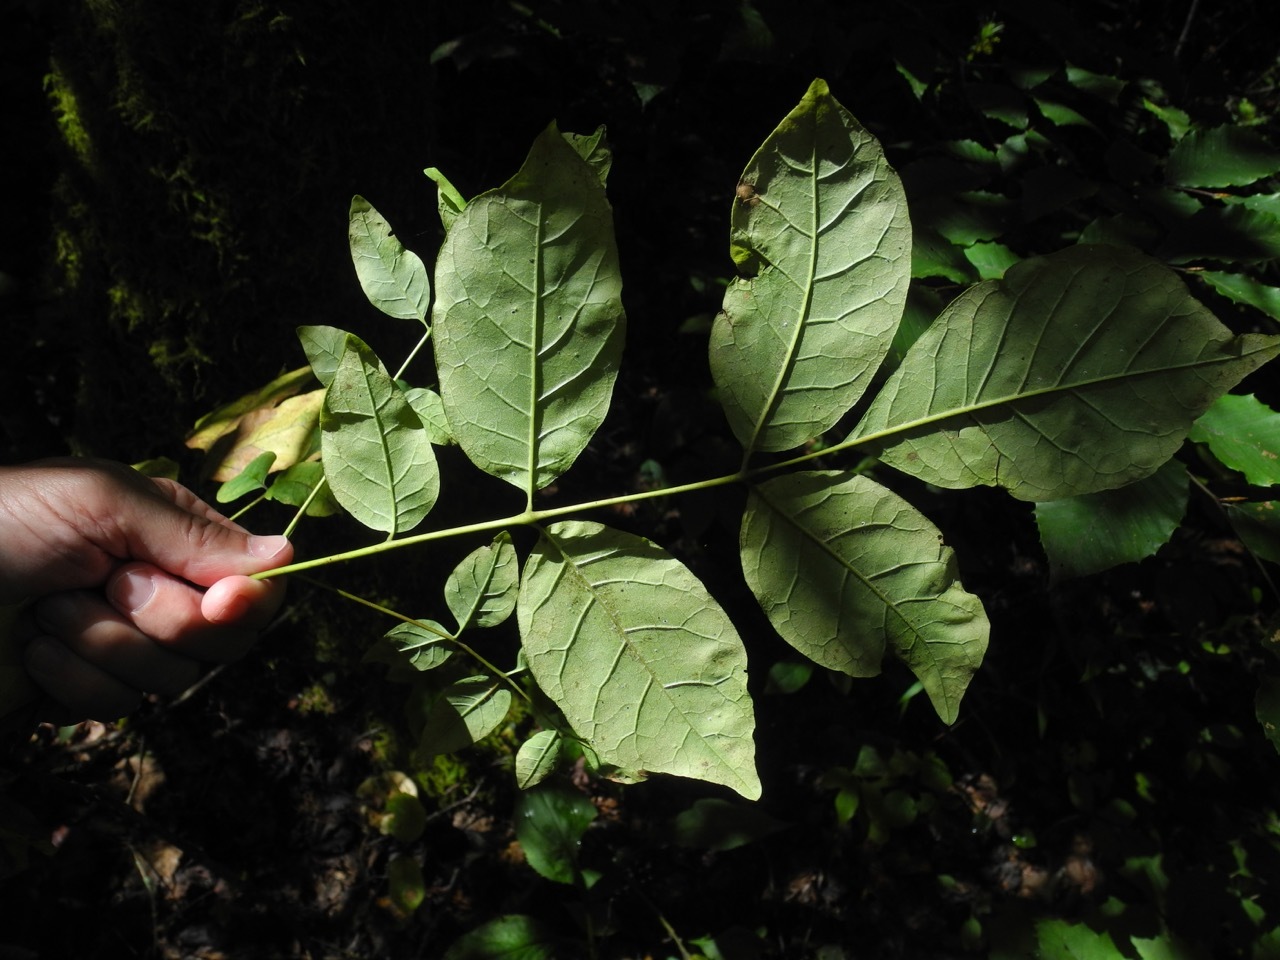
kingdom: Plantae
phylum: Tracheophyta
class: Magnoliopsida
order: Lamiales
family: Oleaceae
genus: Fraxinus
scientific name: Fraxinus americana
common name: White ash
